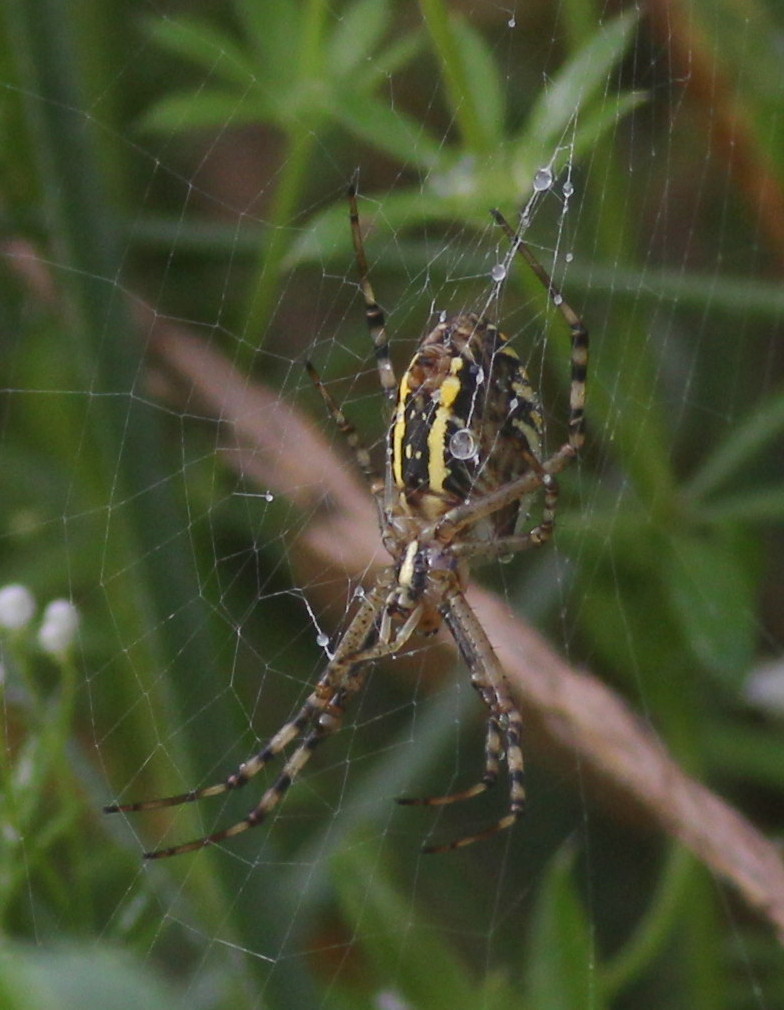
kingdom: Animalia
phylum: Arthropoda
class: Arachnida
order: Araneae
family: Araneidae
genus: Argiope
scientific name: Argiope bruennichi
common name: Wasp spider
